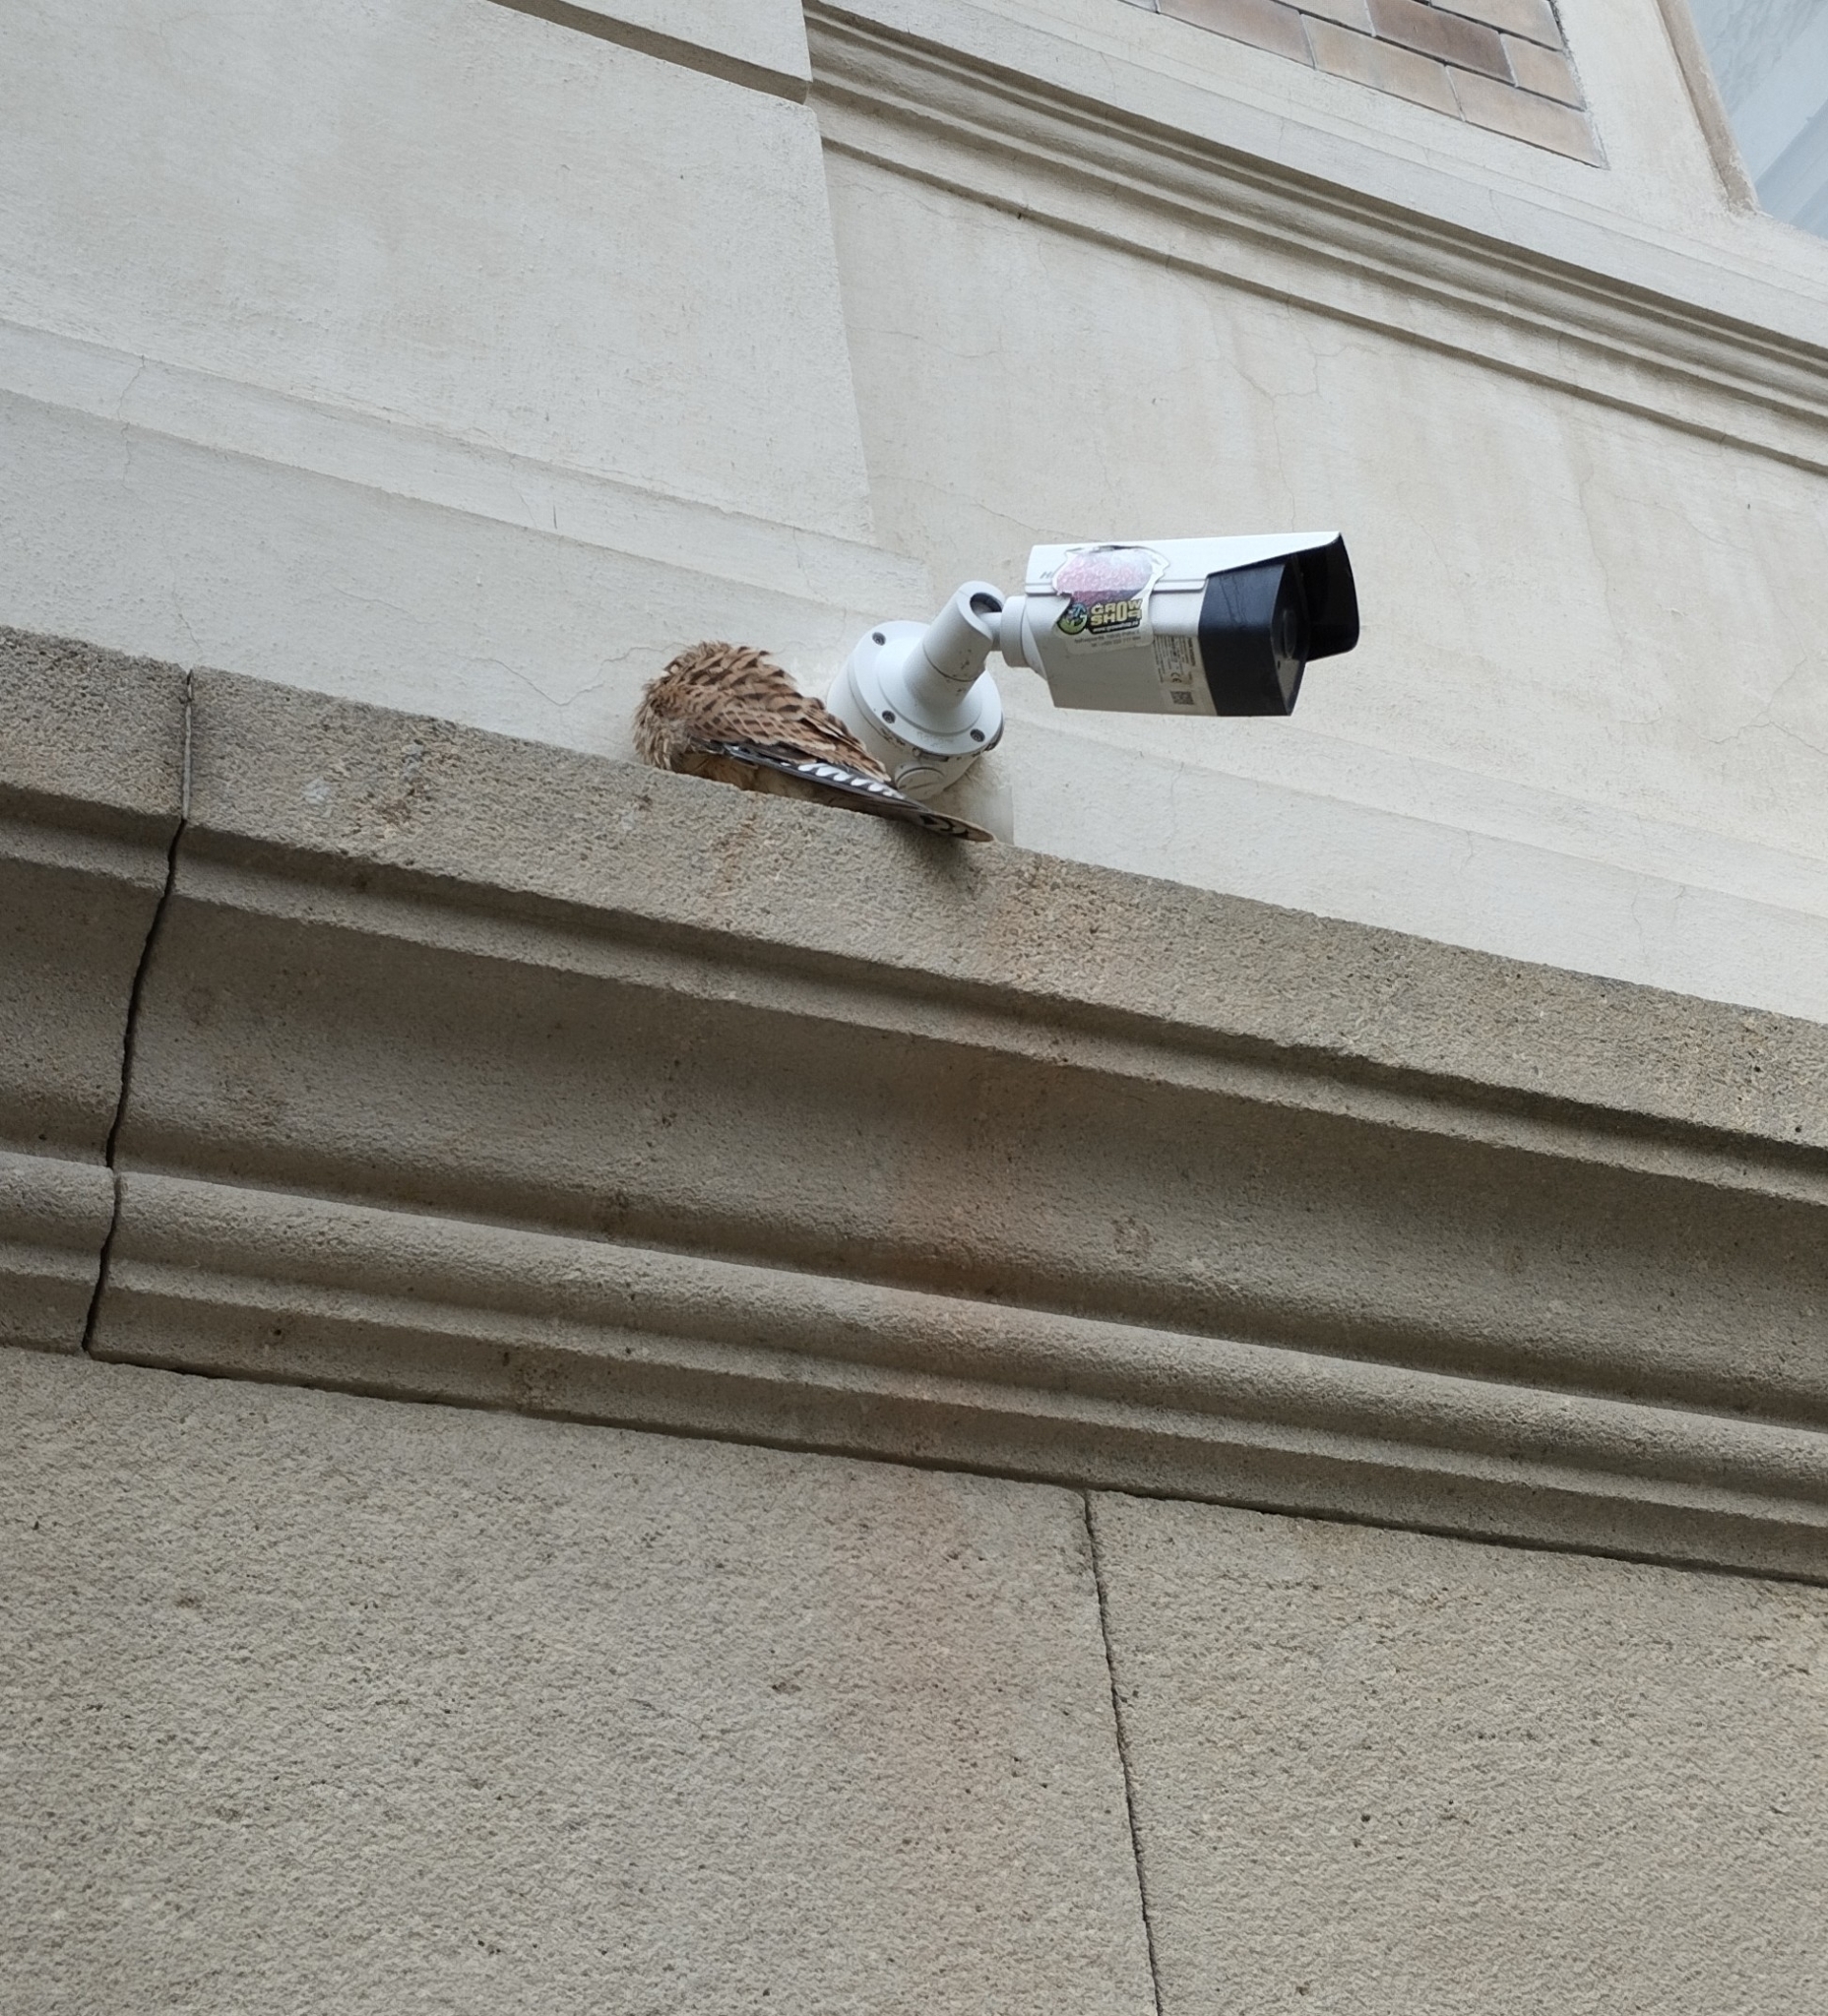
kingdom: Animalia
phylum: Chordata
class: Aves
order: Falconiformes
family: Falconidae
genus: Falco
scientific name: Falco tinnunculus
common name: Common kestrel
